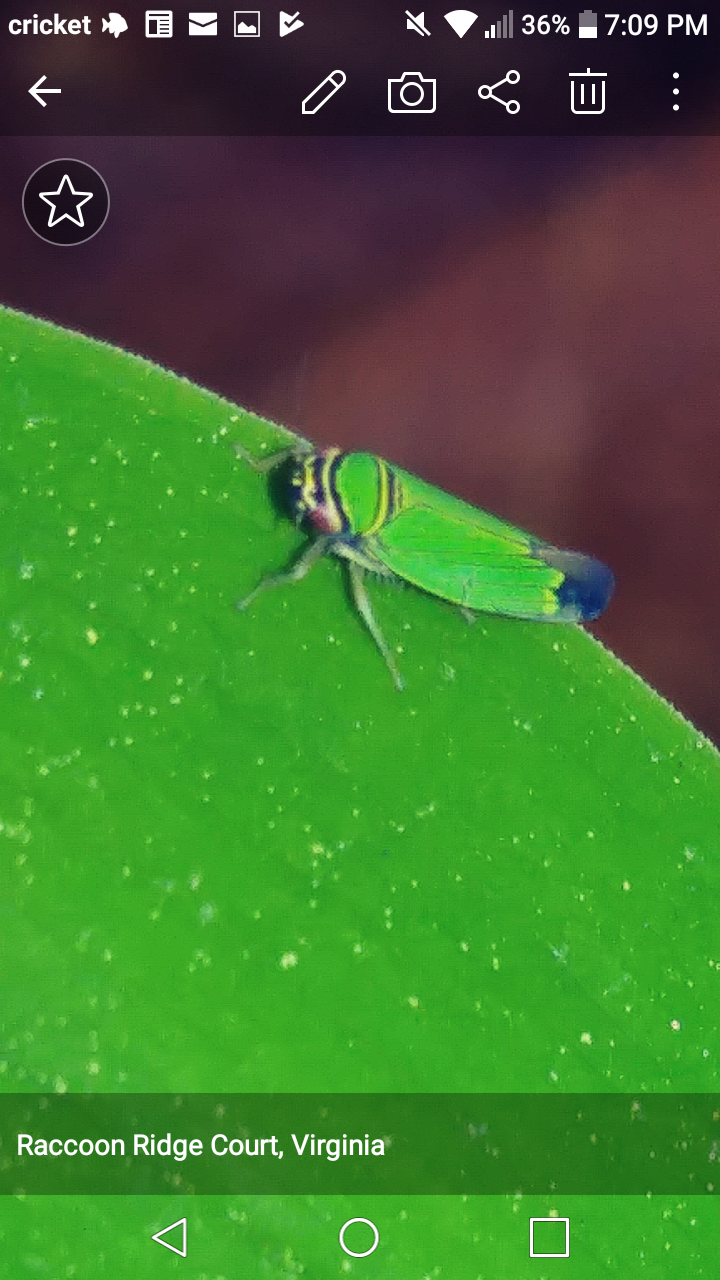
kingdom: Animalia
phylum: Arthropoda
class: Insecta
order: Hemiptera
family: Cicadellidae
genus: Tylozygus
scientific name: Tylozygus geometricus
